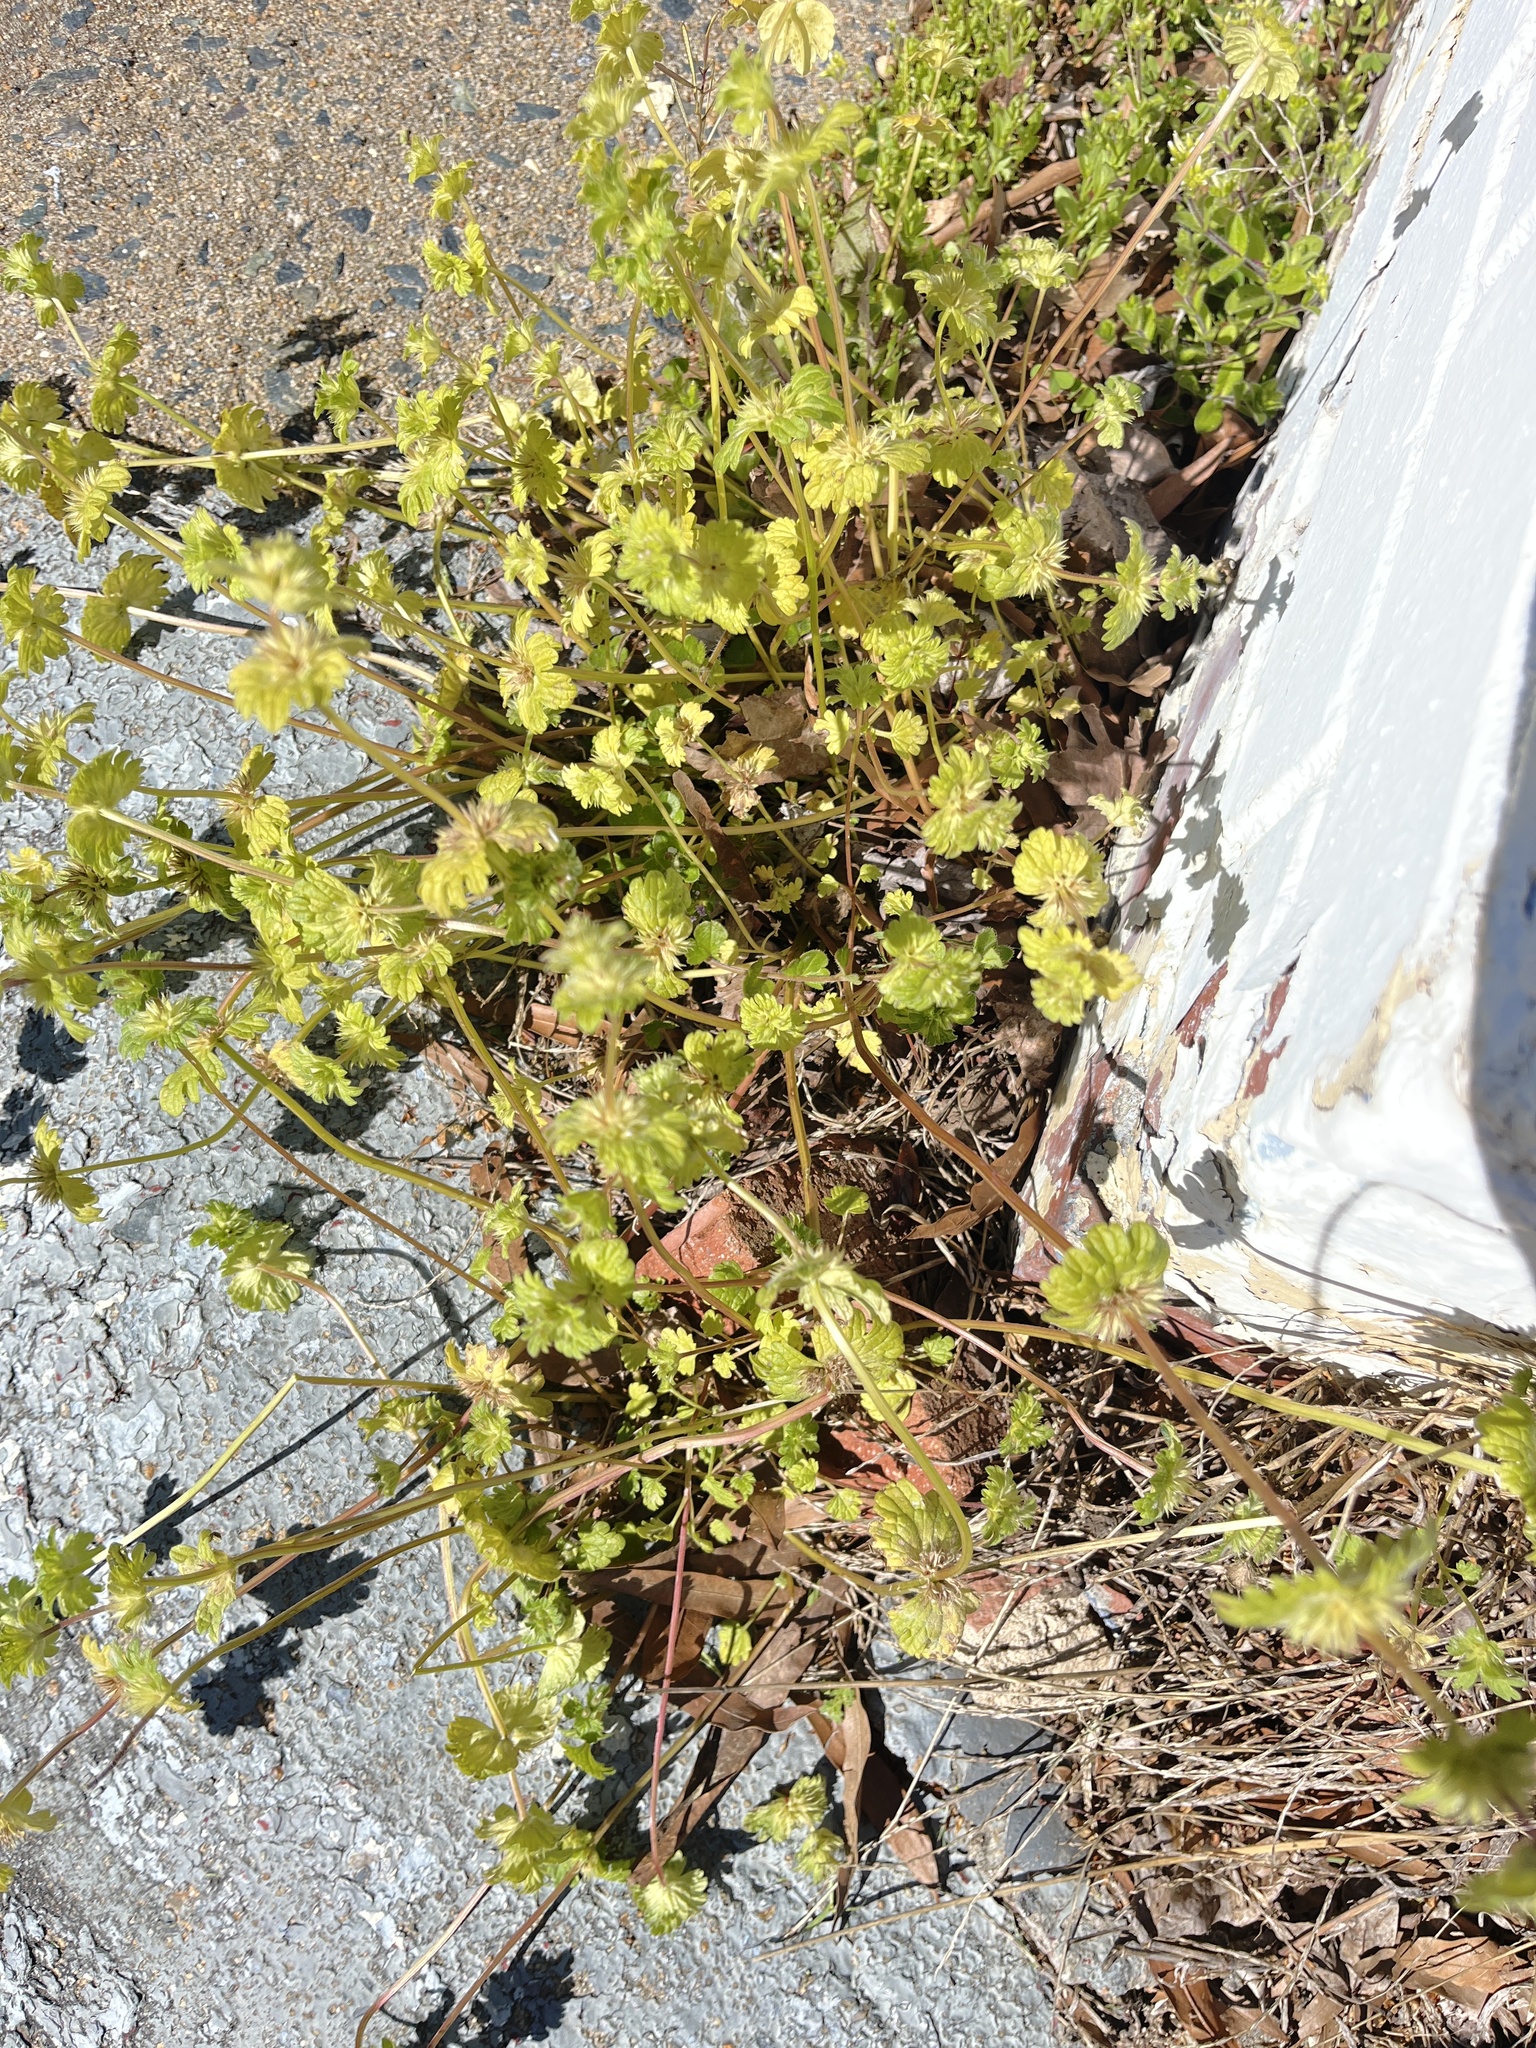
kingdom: Plantae
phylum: Tracheophyta
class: Magnoliopsida
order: Lamiales
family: Lamiaceae
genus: Lamium
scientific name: Lamium amplexicaule
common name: Henbit dead-nettle
